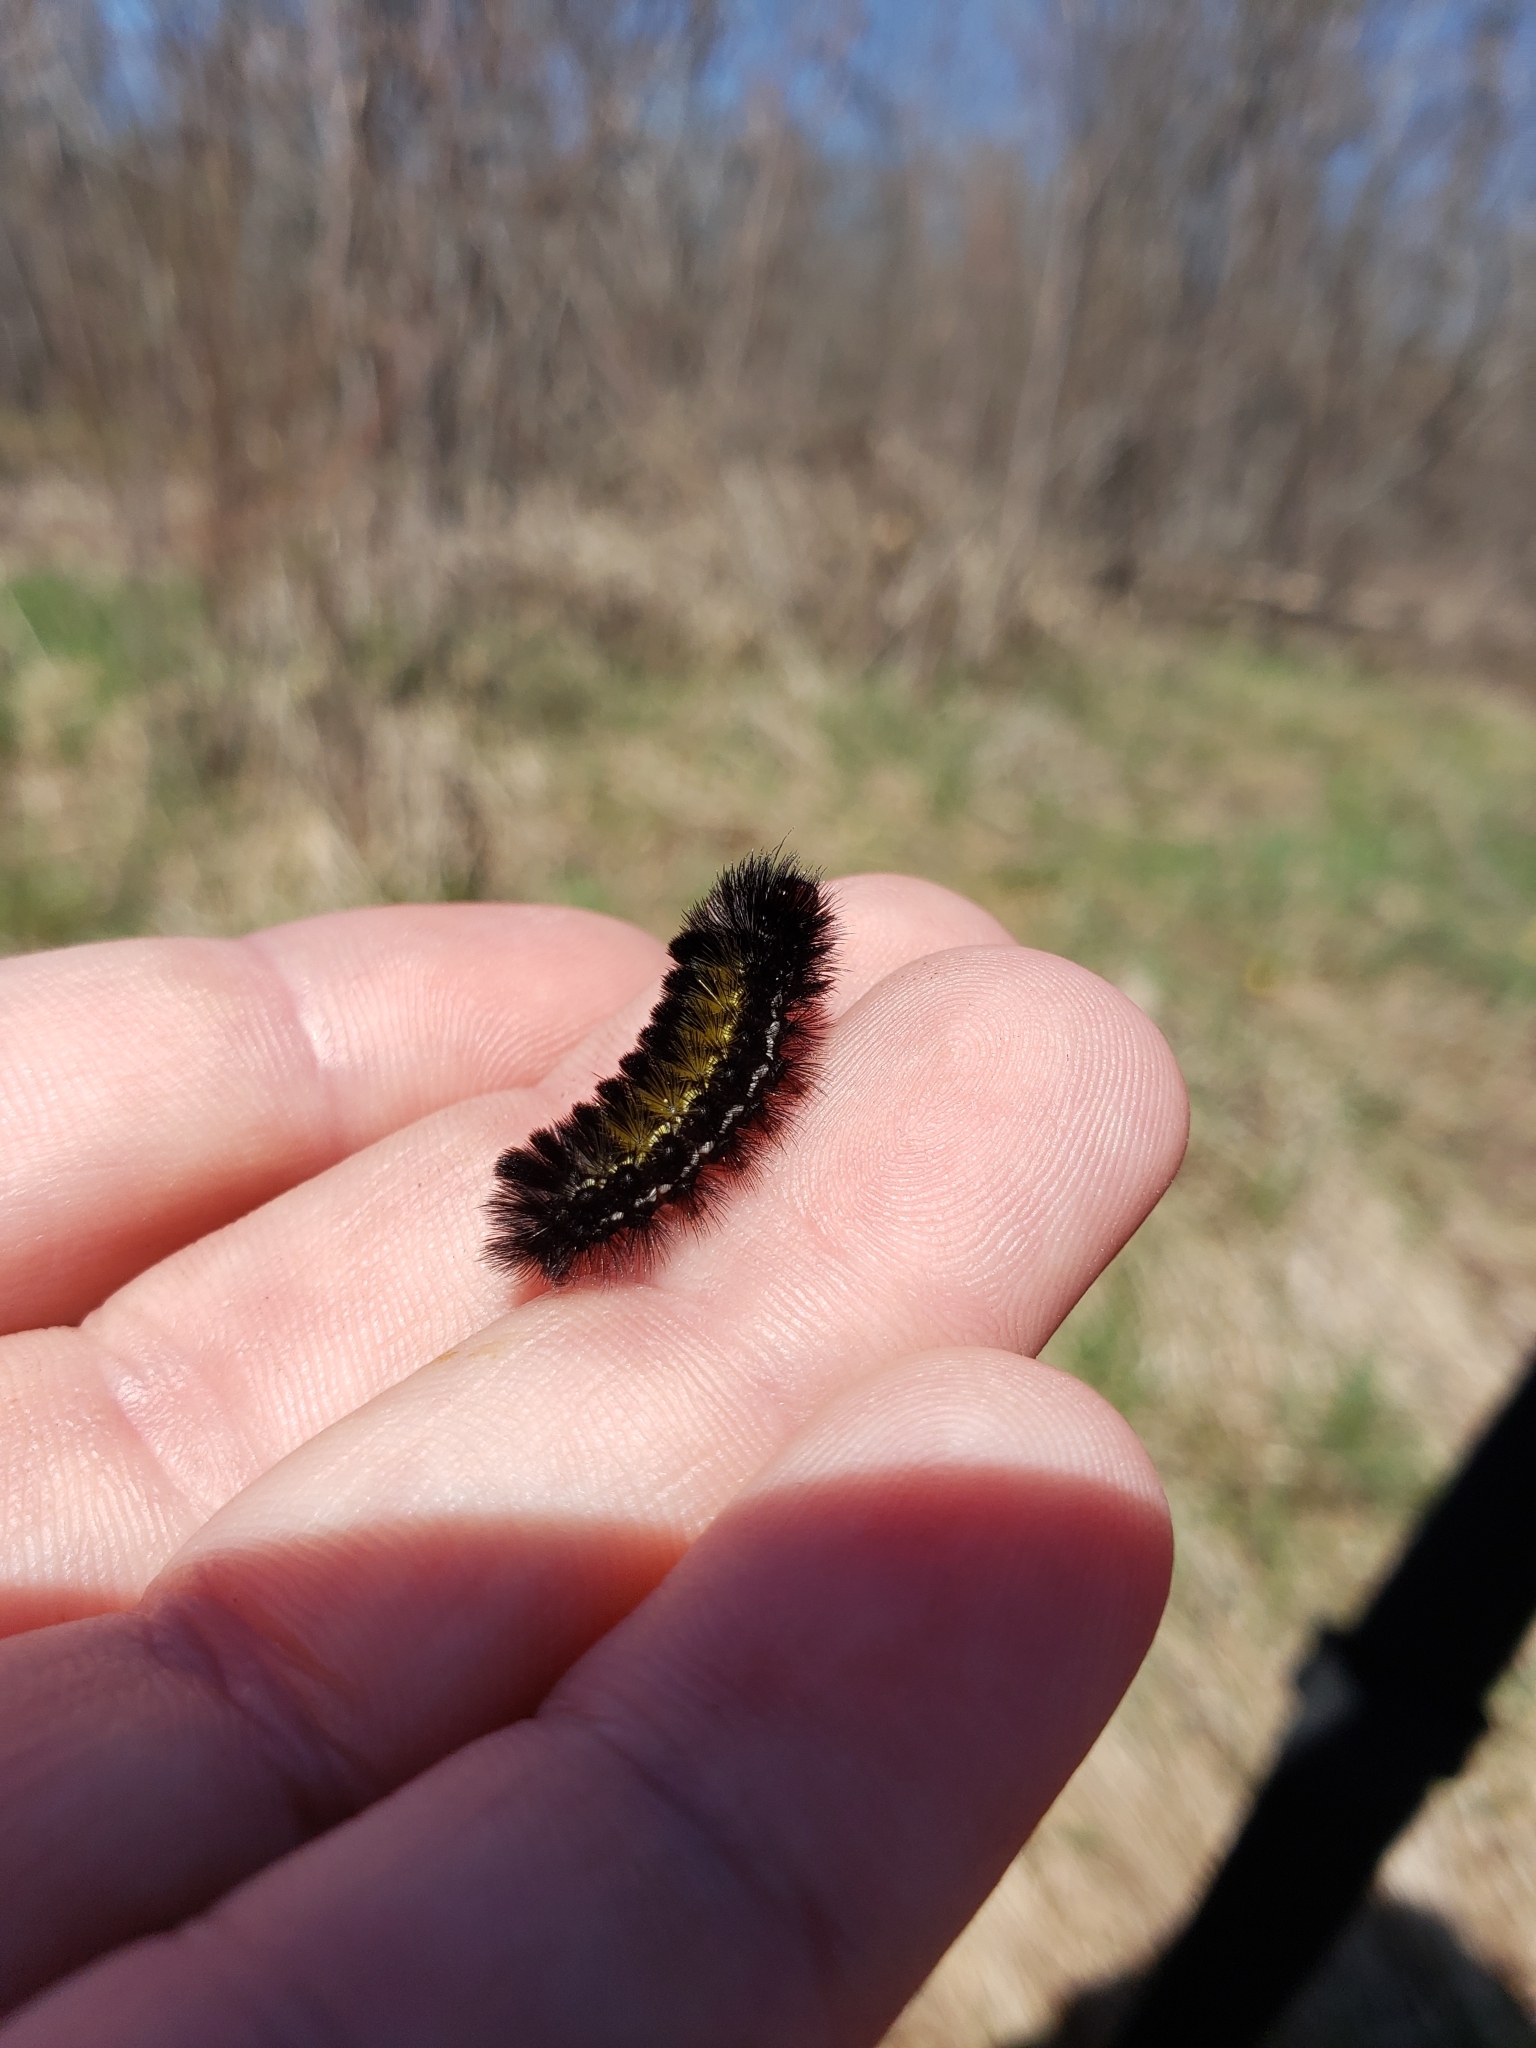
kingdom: Animalia
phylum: Arthropoda
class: Insecta
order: Lepidoptera
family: Erebidae
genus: Ctenucha
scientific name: Ctenucha virginica
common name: Virginia ctenucha moth
